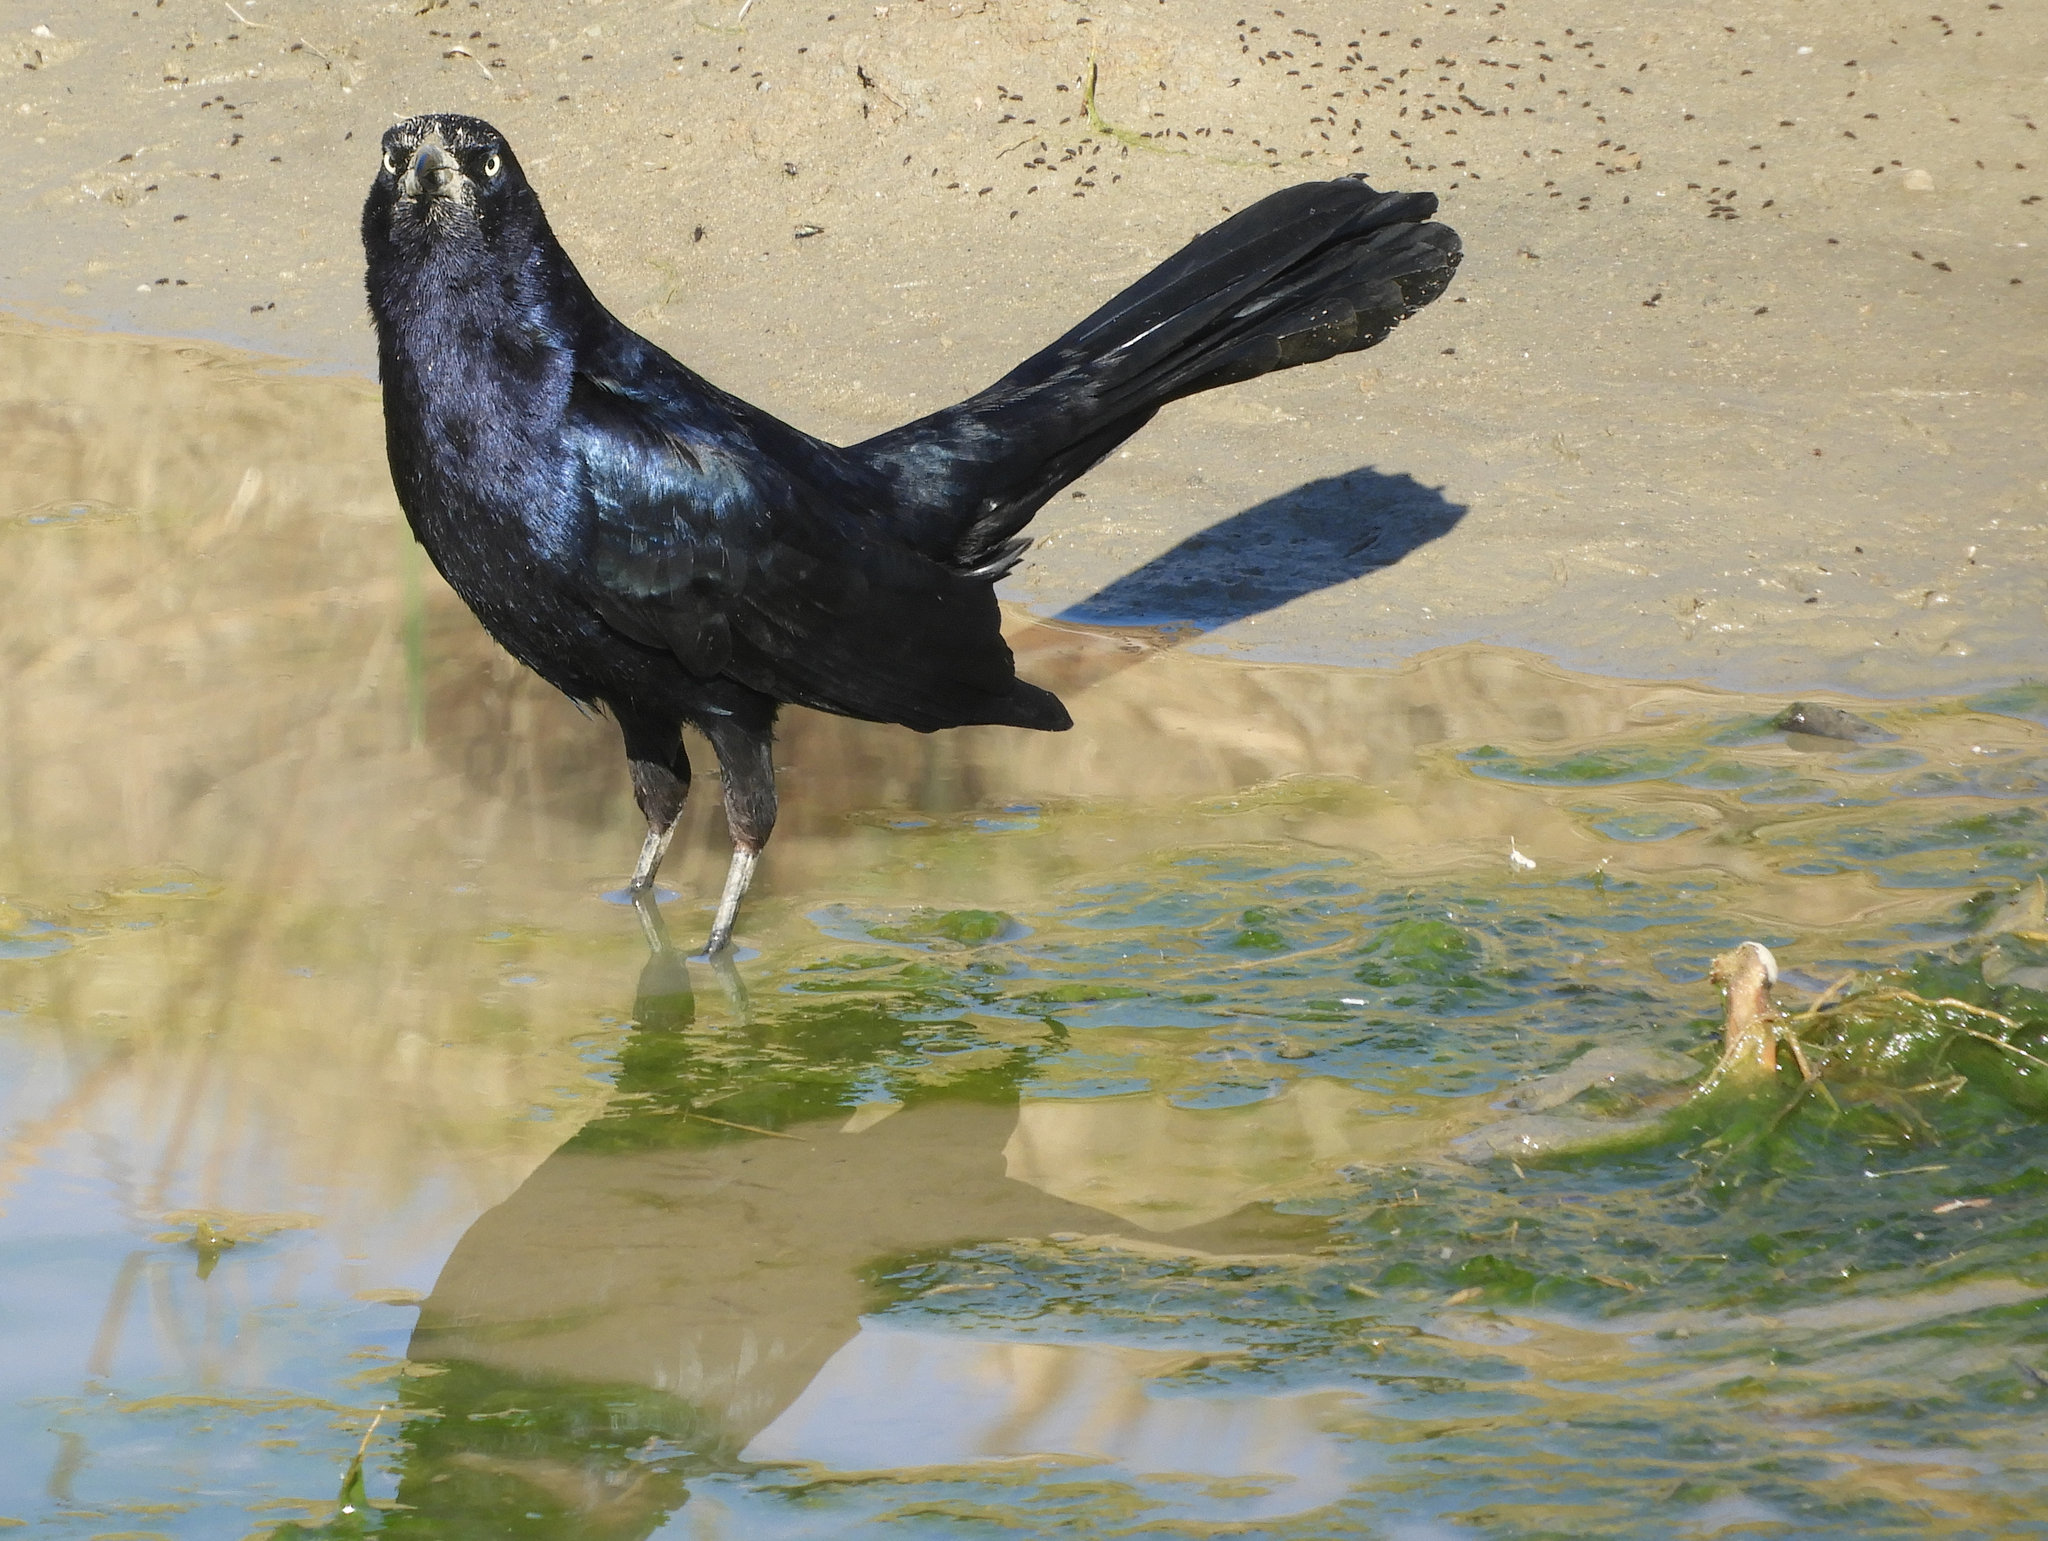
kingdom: Animalia
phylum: Chordata
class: Aves
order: Passeriformes
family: Icteridae
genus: Quiscalus
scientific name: Quiscalus mexicanus
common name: Great-tailed grackle
